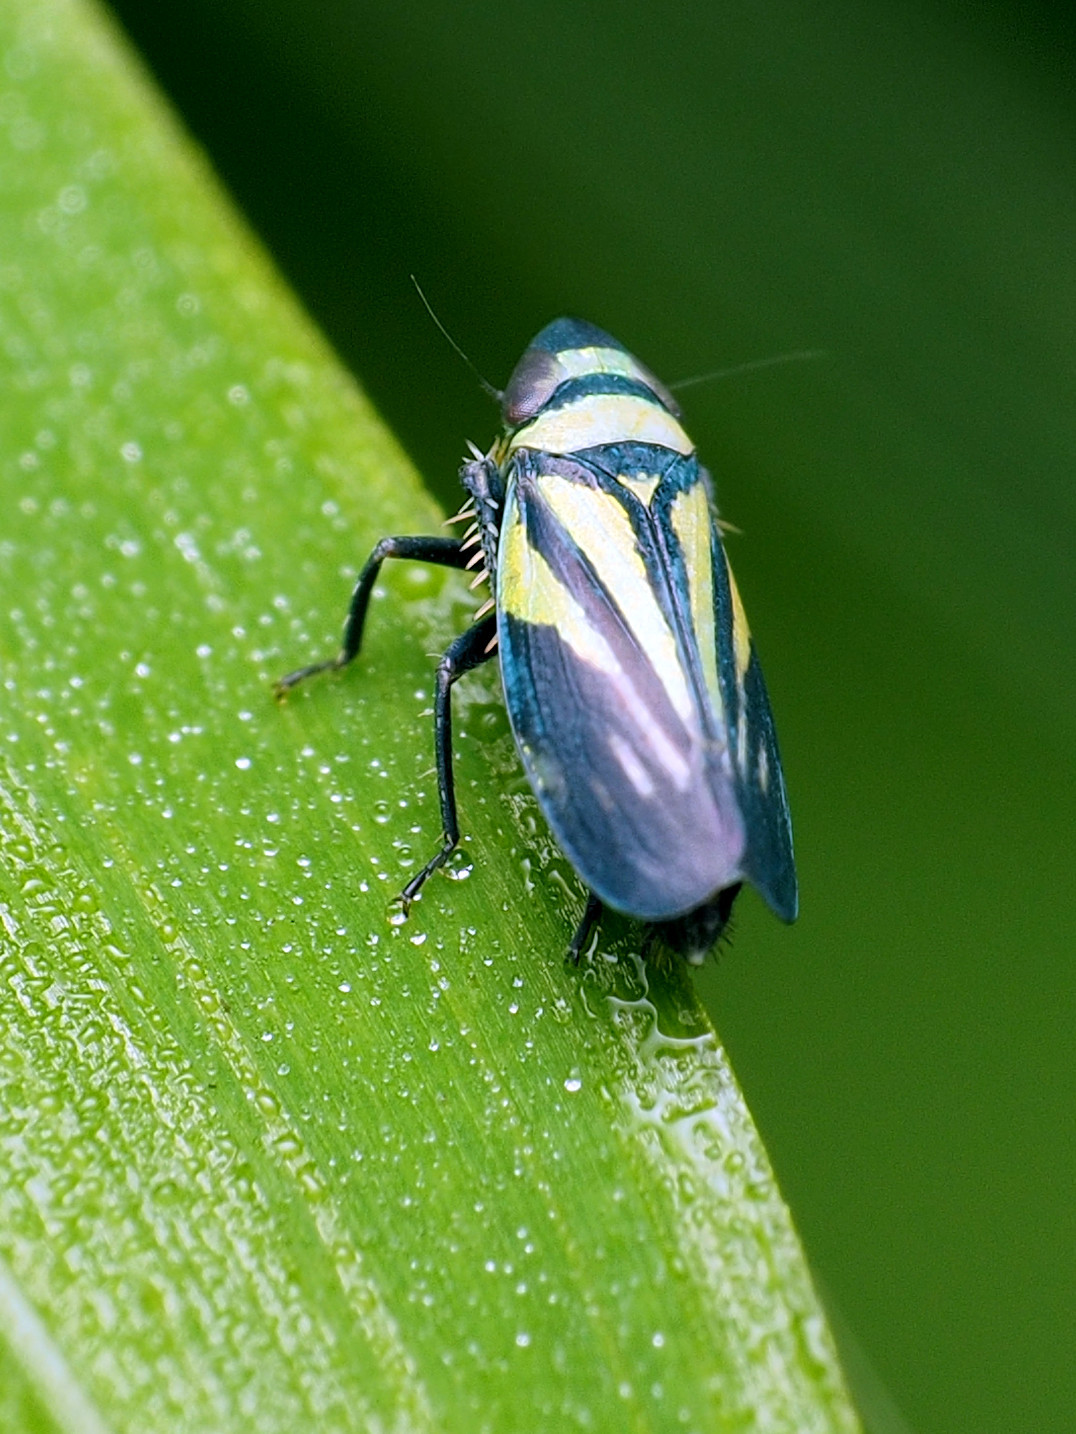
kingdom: Animalia
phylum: Arthropoda
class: Insecta
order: Hemiptera
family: Cicadellidae
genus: Stirellus
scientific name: Stirellus bicolor
